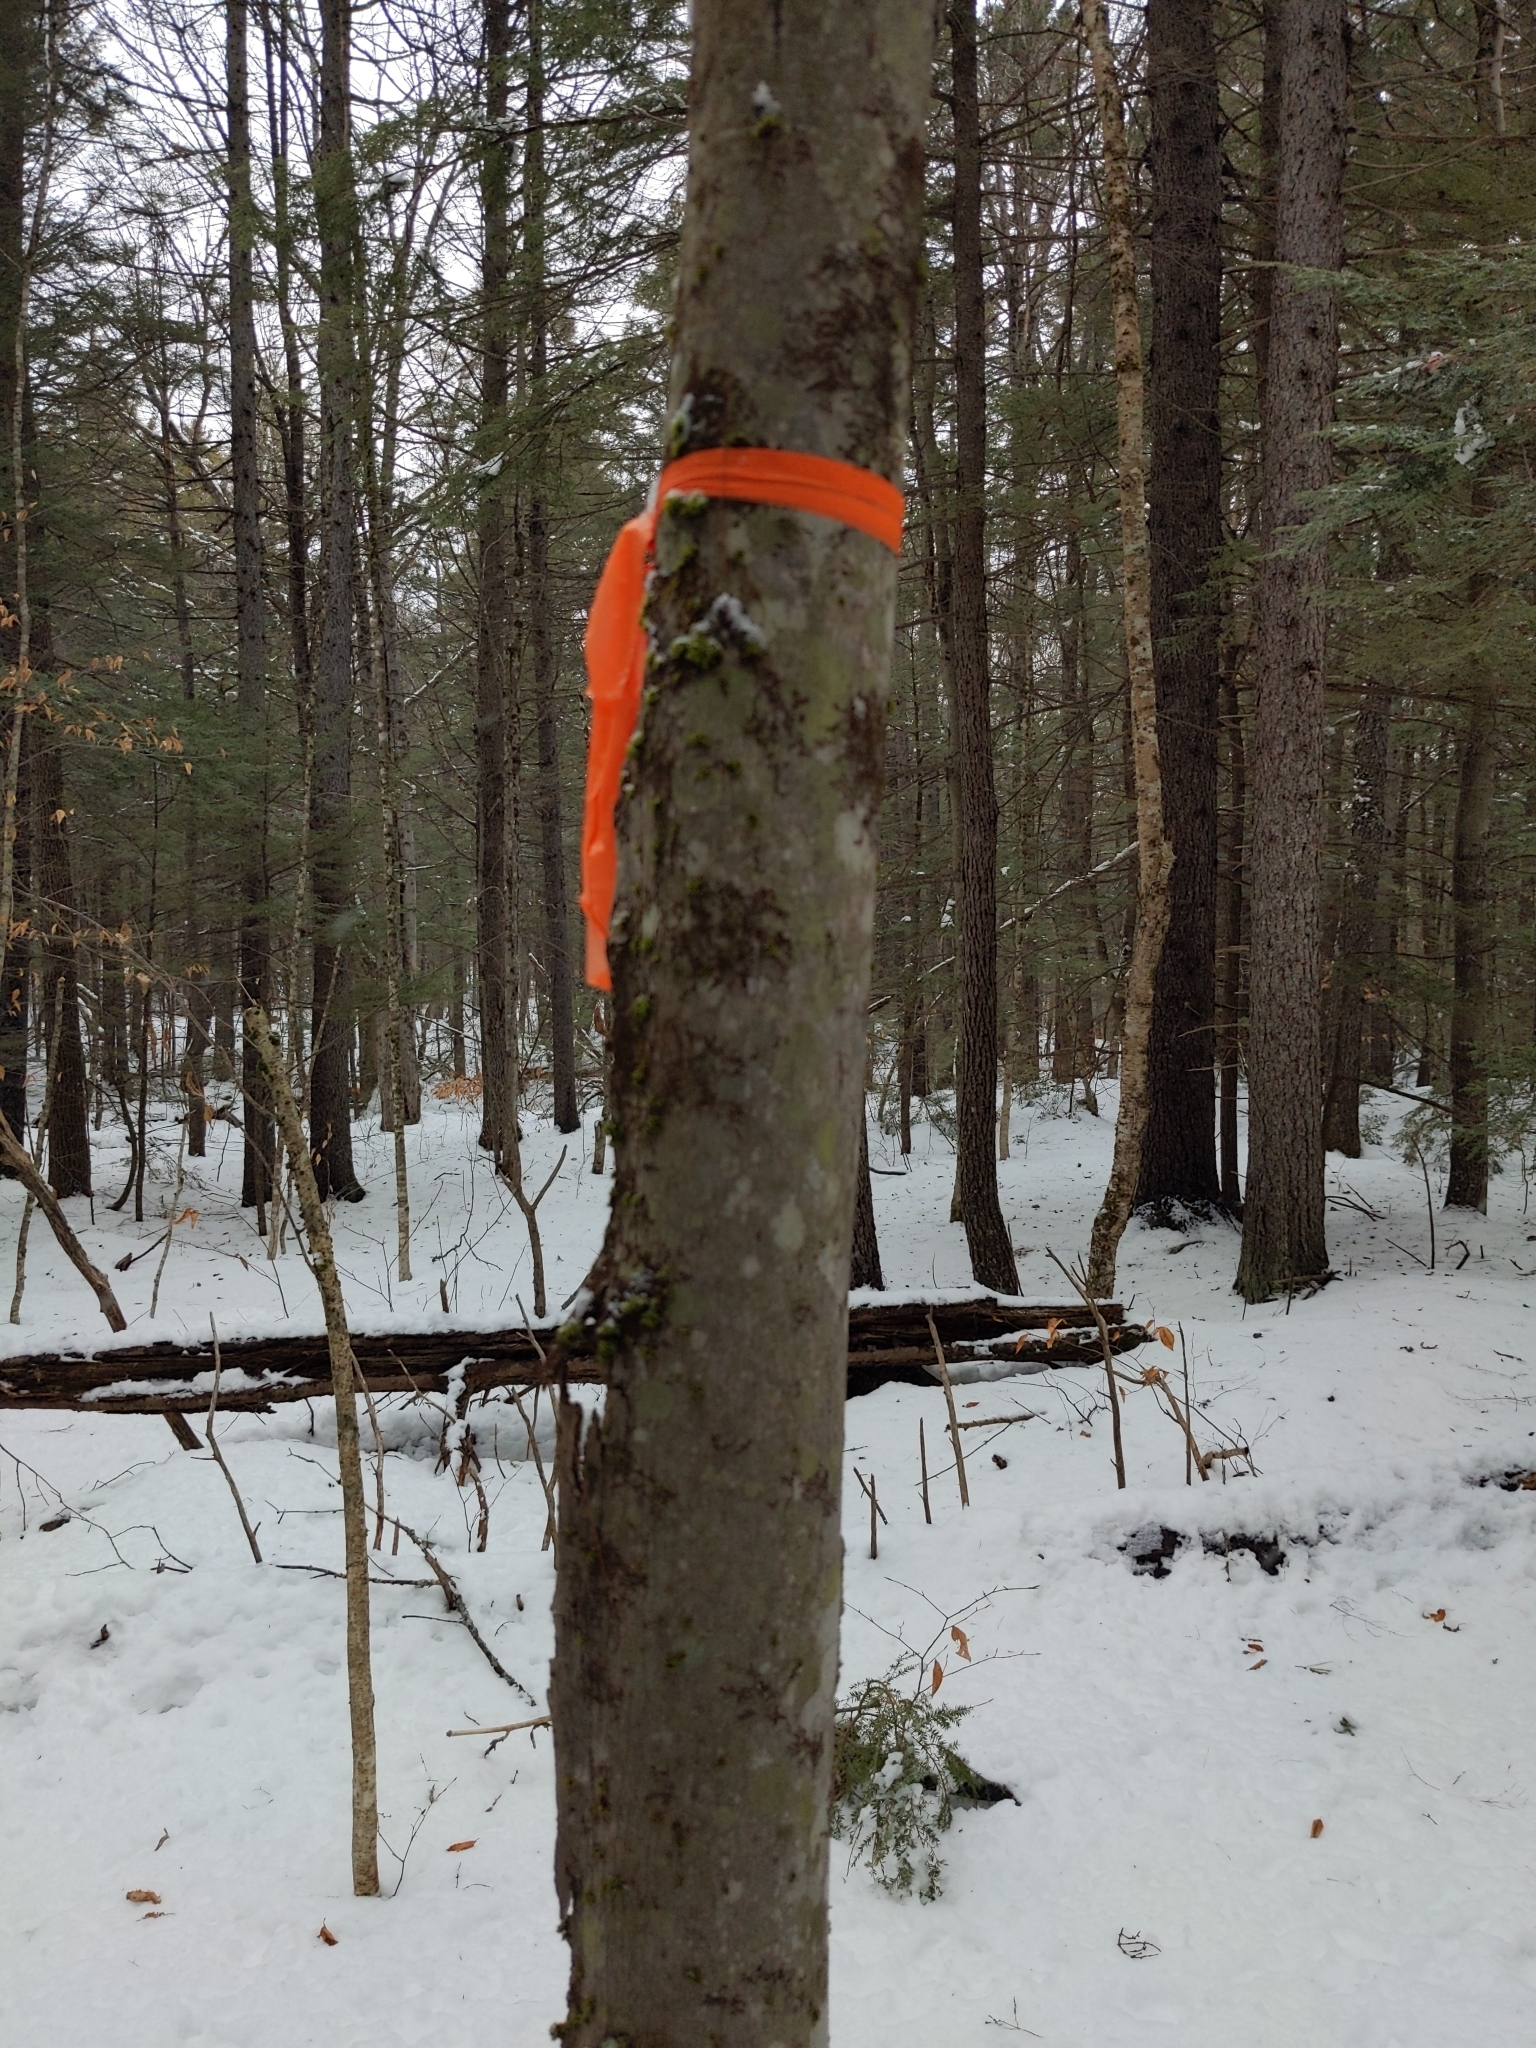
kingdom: Plantae
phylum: Tracheophyta
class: Magnoliopsida
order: Fagales
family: Fagaceae
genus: Fagus
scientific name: Fagus grandifolia
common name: American beech
